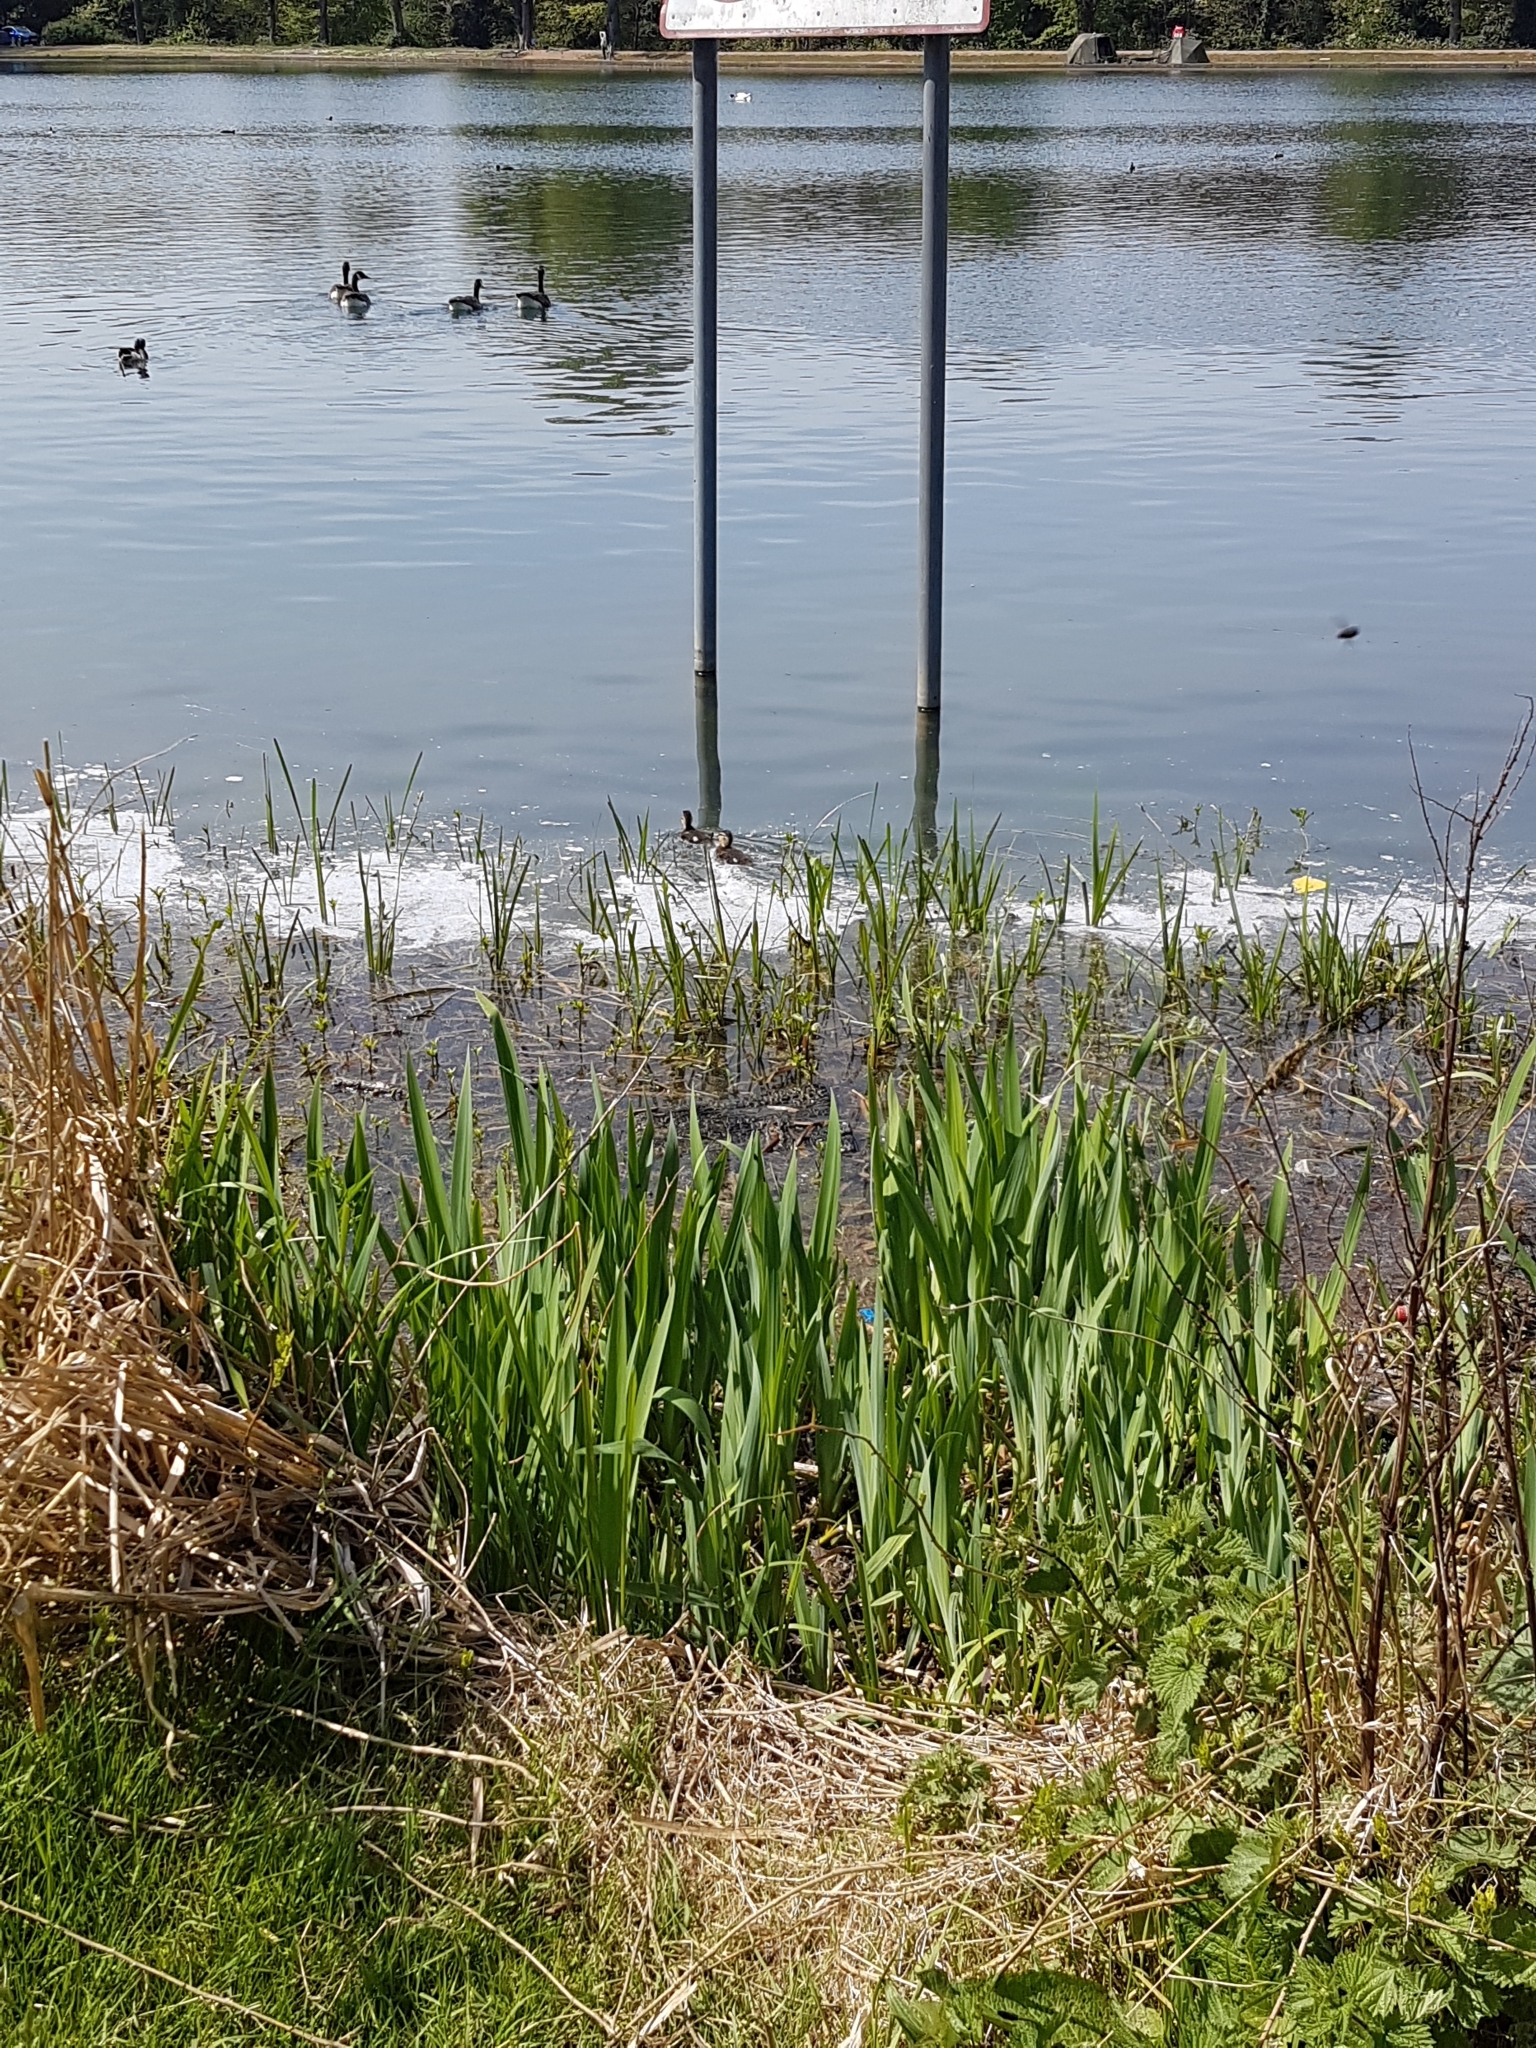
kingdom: Animalia
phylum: Chordata
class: Aves
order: Anseriformes
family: Anatidae
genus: Anas
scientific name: Anas platyrhynchos
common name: Mallard
